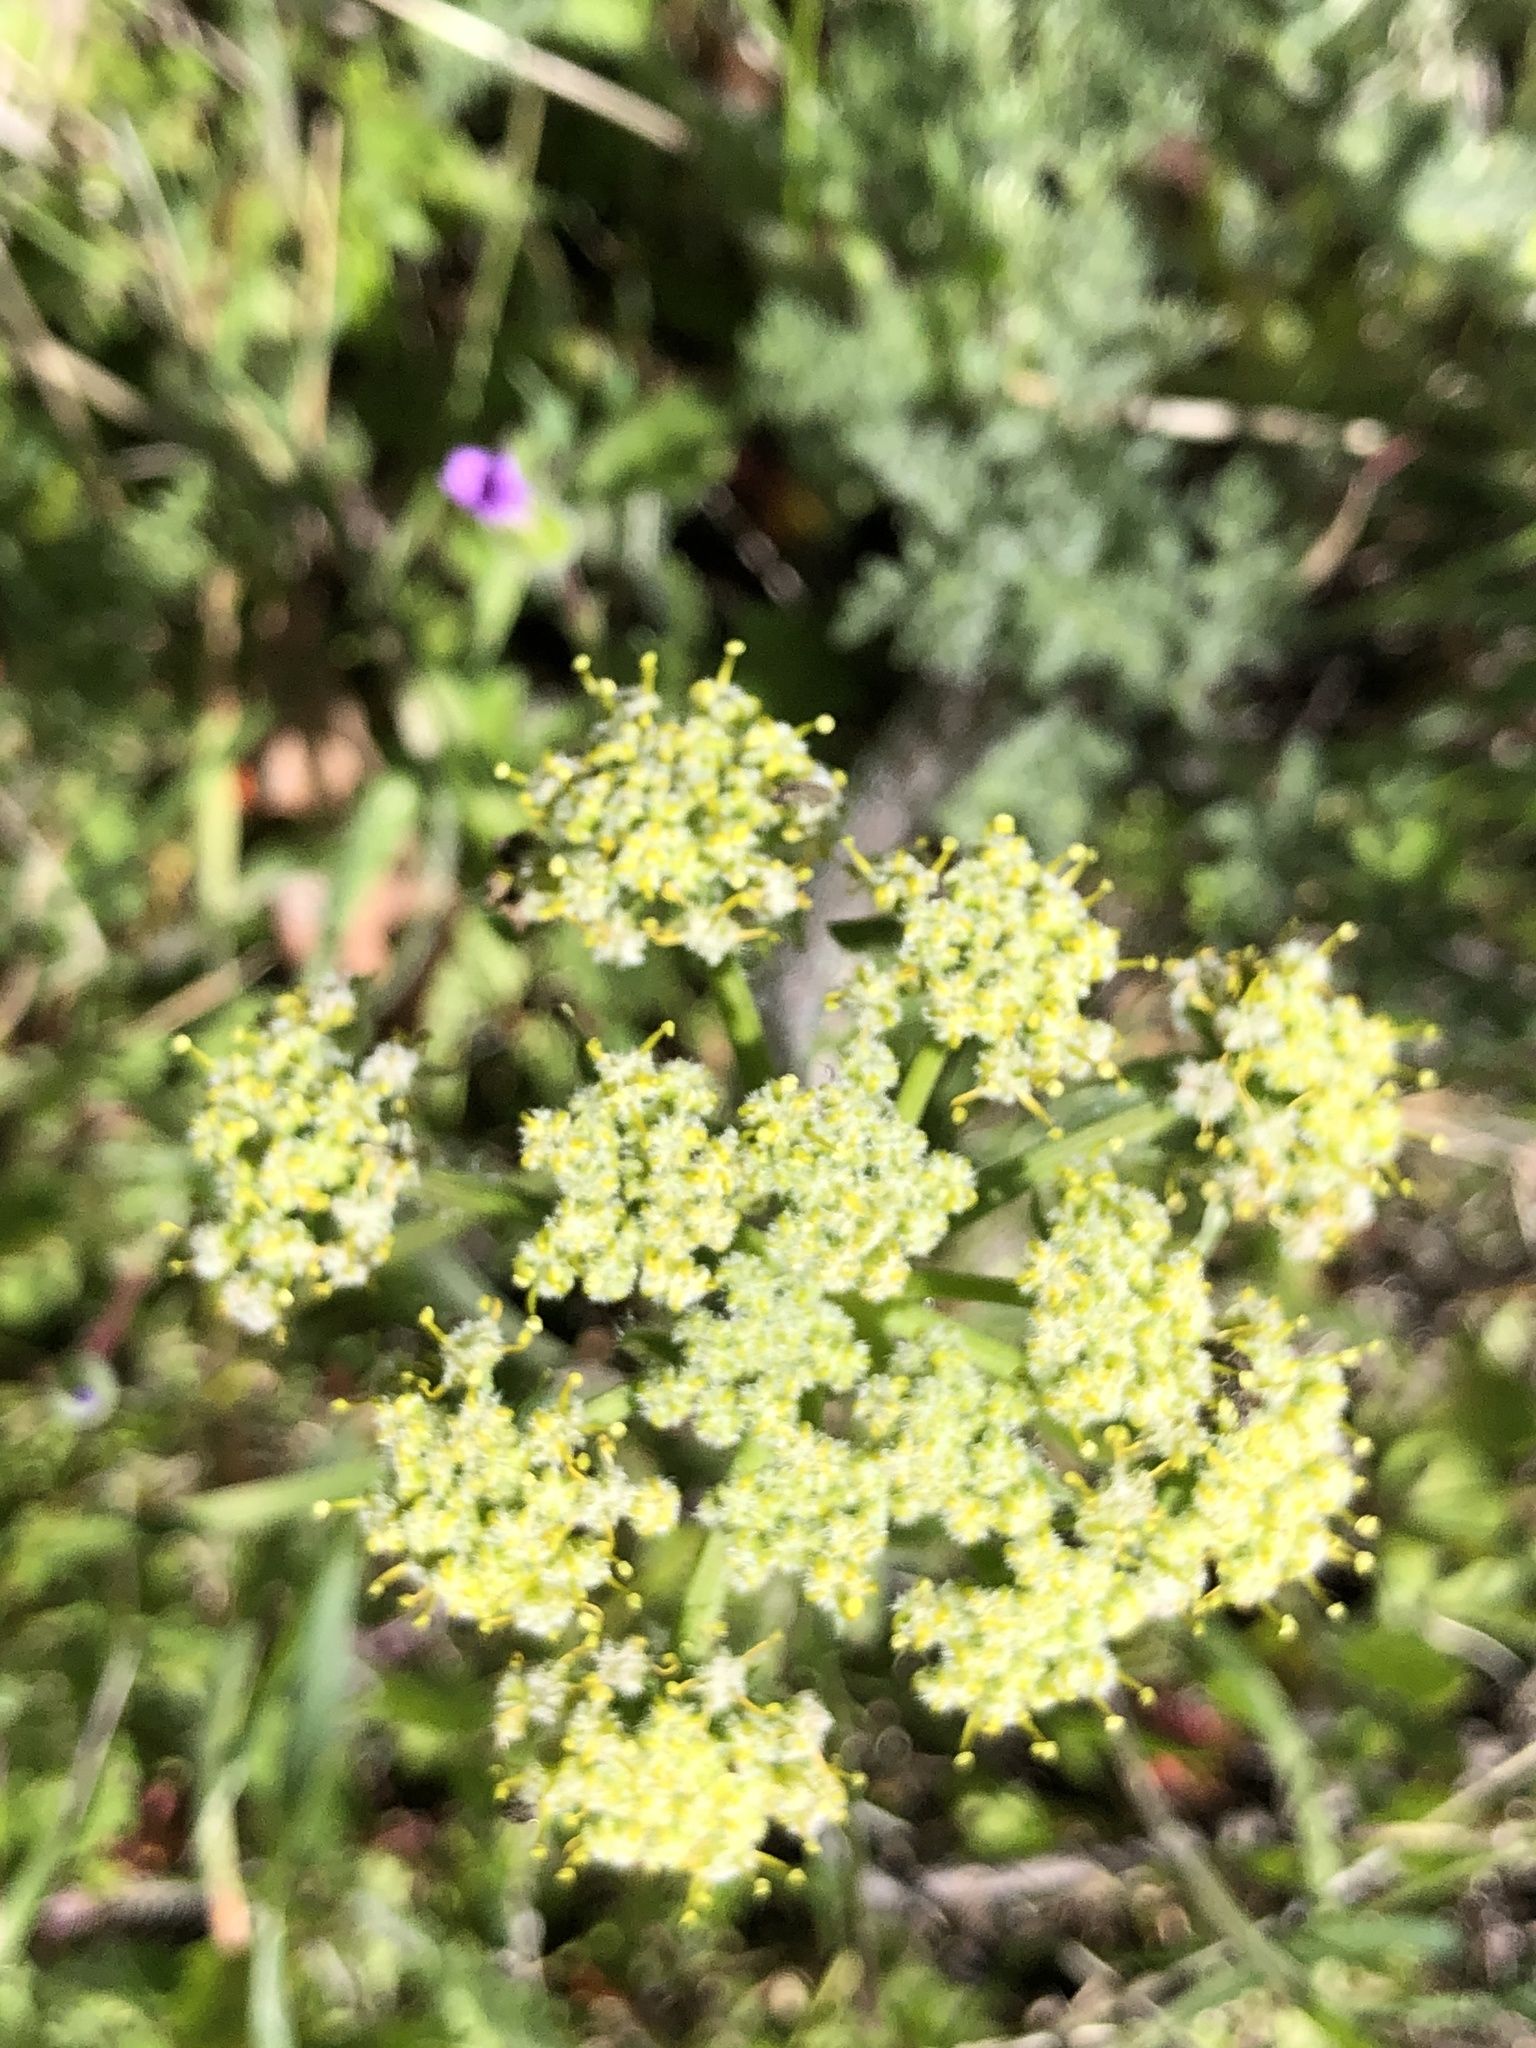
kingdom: Plantae
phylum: Tracheophyta
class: Magnoliopsida
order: Apiales
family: Apiaceae
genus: Lomatium
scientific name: Lomatium dasycarpum
